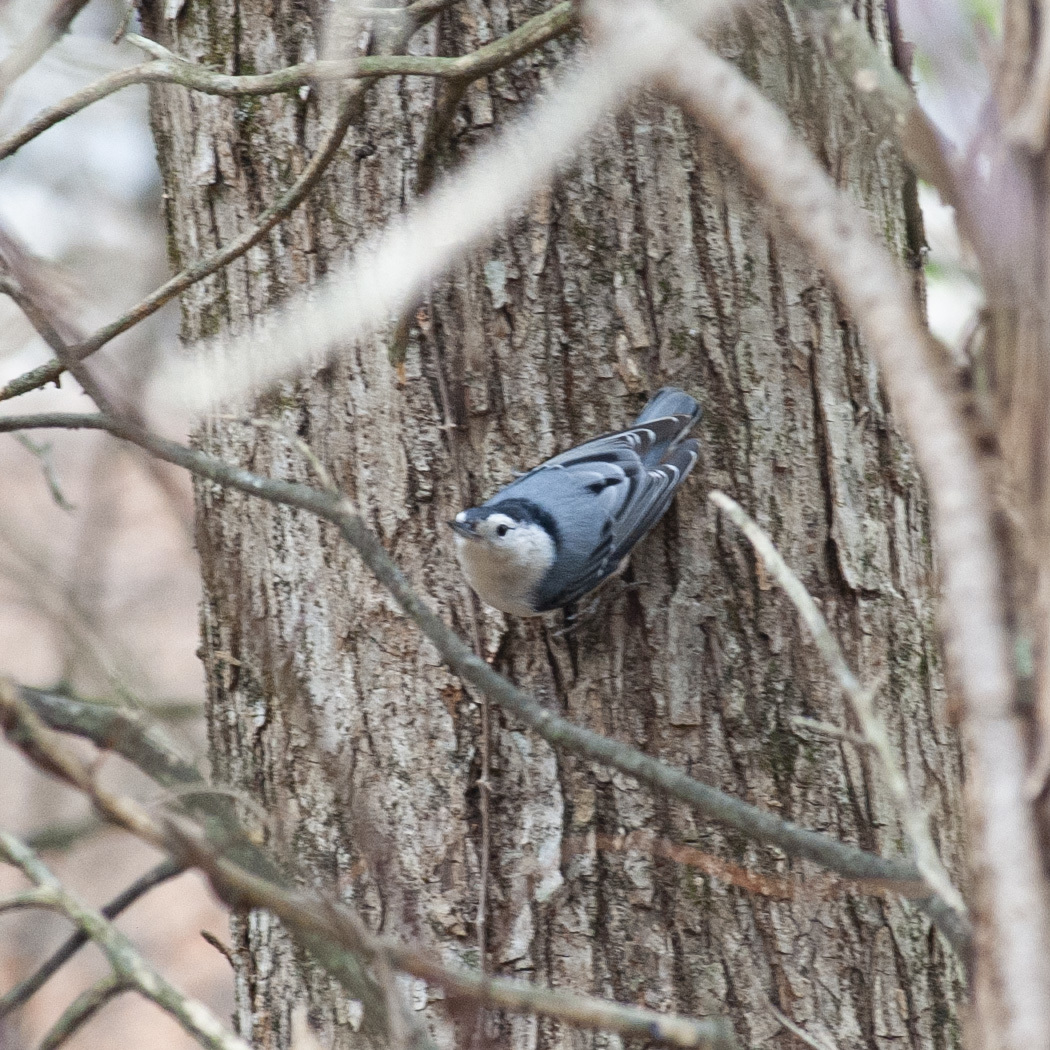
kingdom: Animalia
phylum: Chordata
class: Aves
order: Passeriformes
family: Sittidae
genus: Sitta
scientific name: Sitta carolinensis
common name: White-breasted nuthatch
